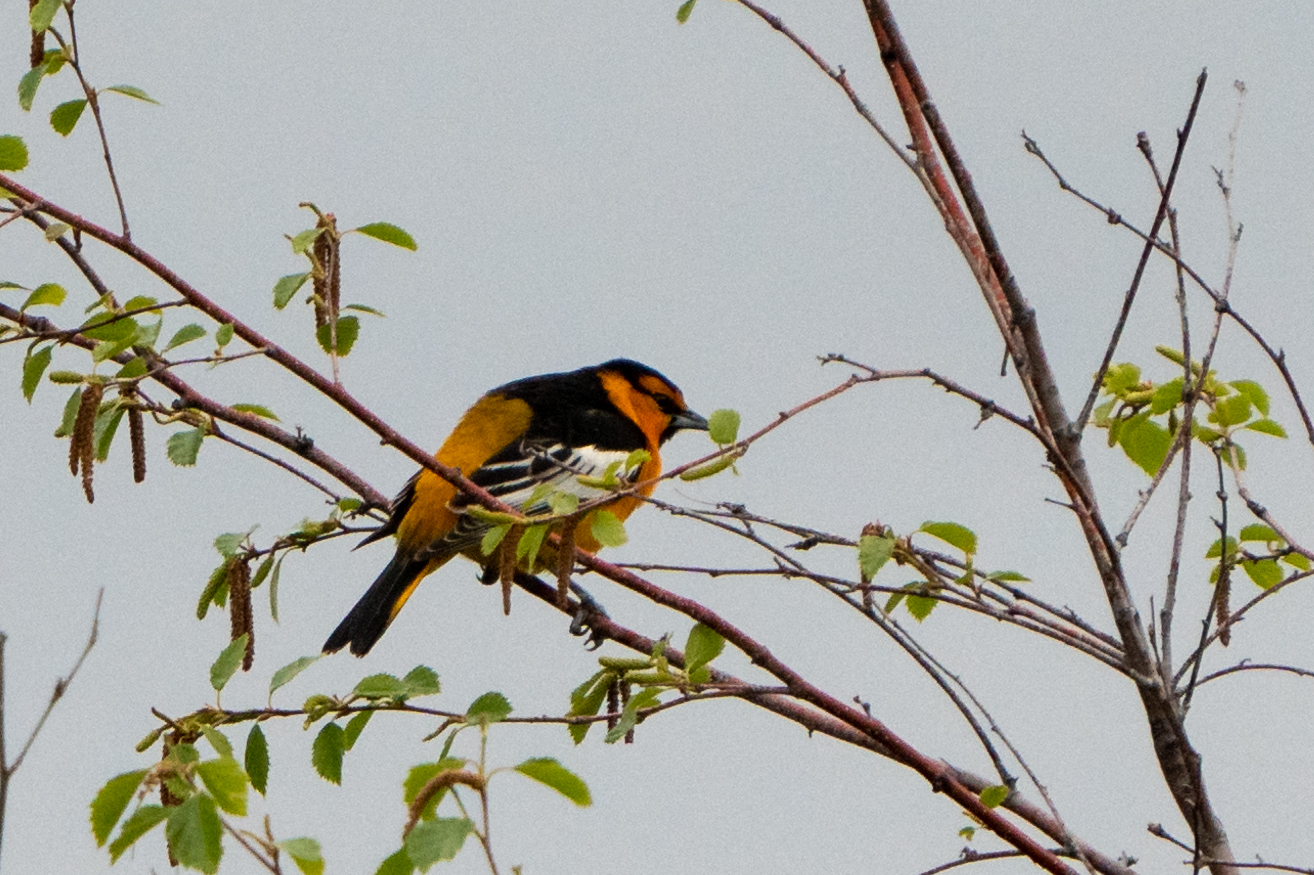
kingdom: Animalia
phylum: Chordata
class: Aves
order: Passeriformes
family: Icteridae
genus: Icterus
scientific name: Icterus bullockii
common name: Bullock's oriole
